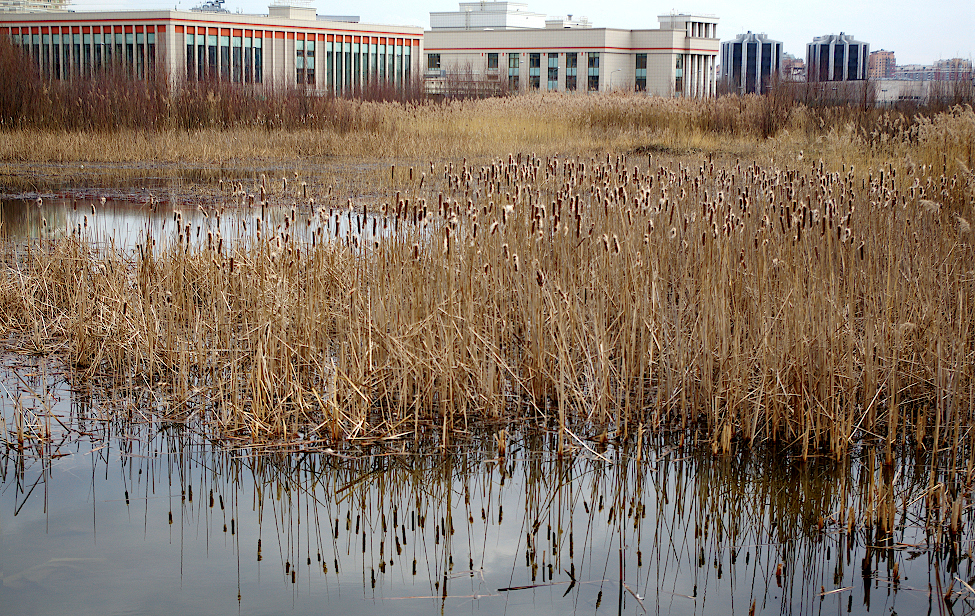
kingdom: Plantae
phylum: Tracheophyta
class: Liliopsida
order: Poales
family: Typhaceae
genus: Typha
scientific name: Typha latifolia
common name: Broadleaf cattail
